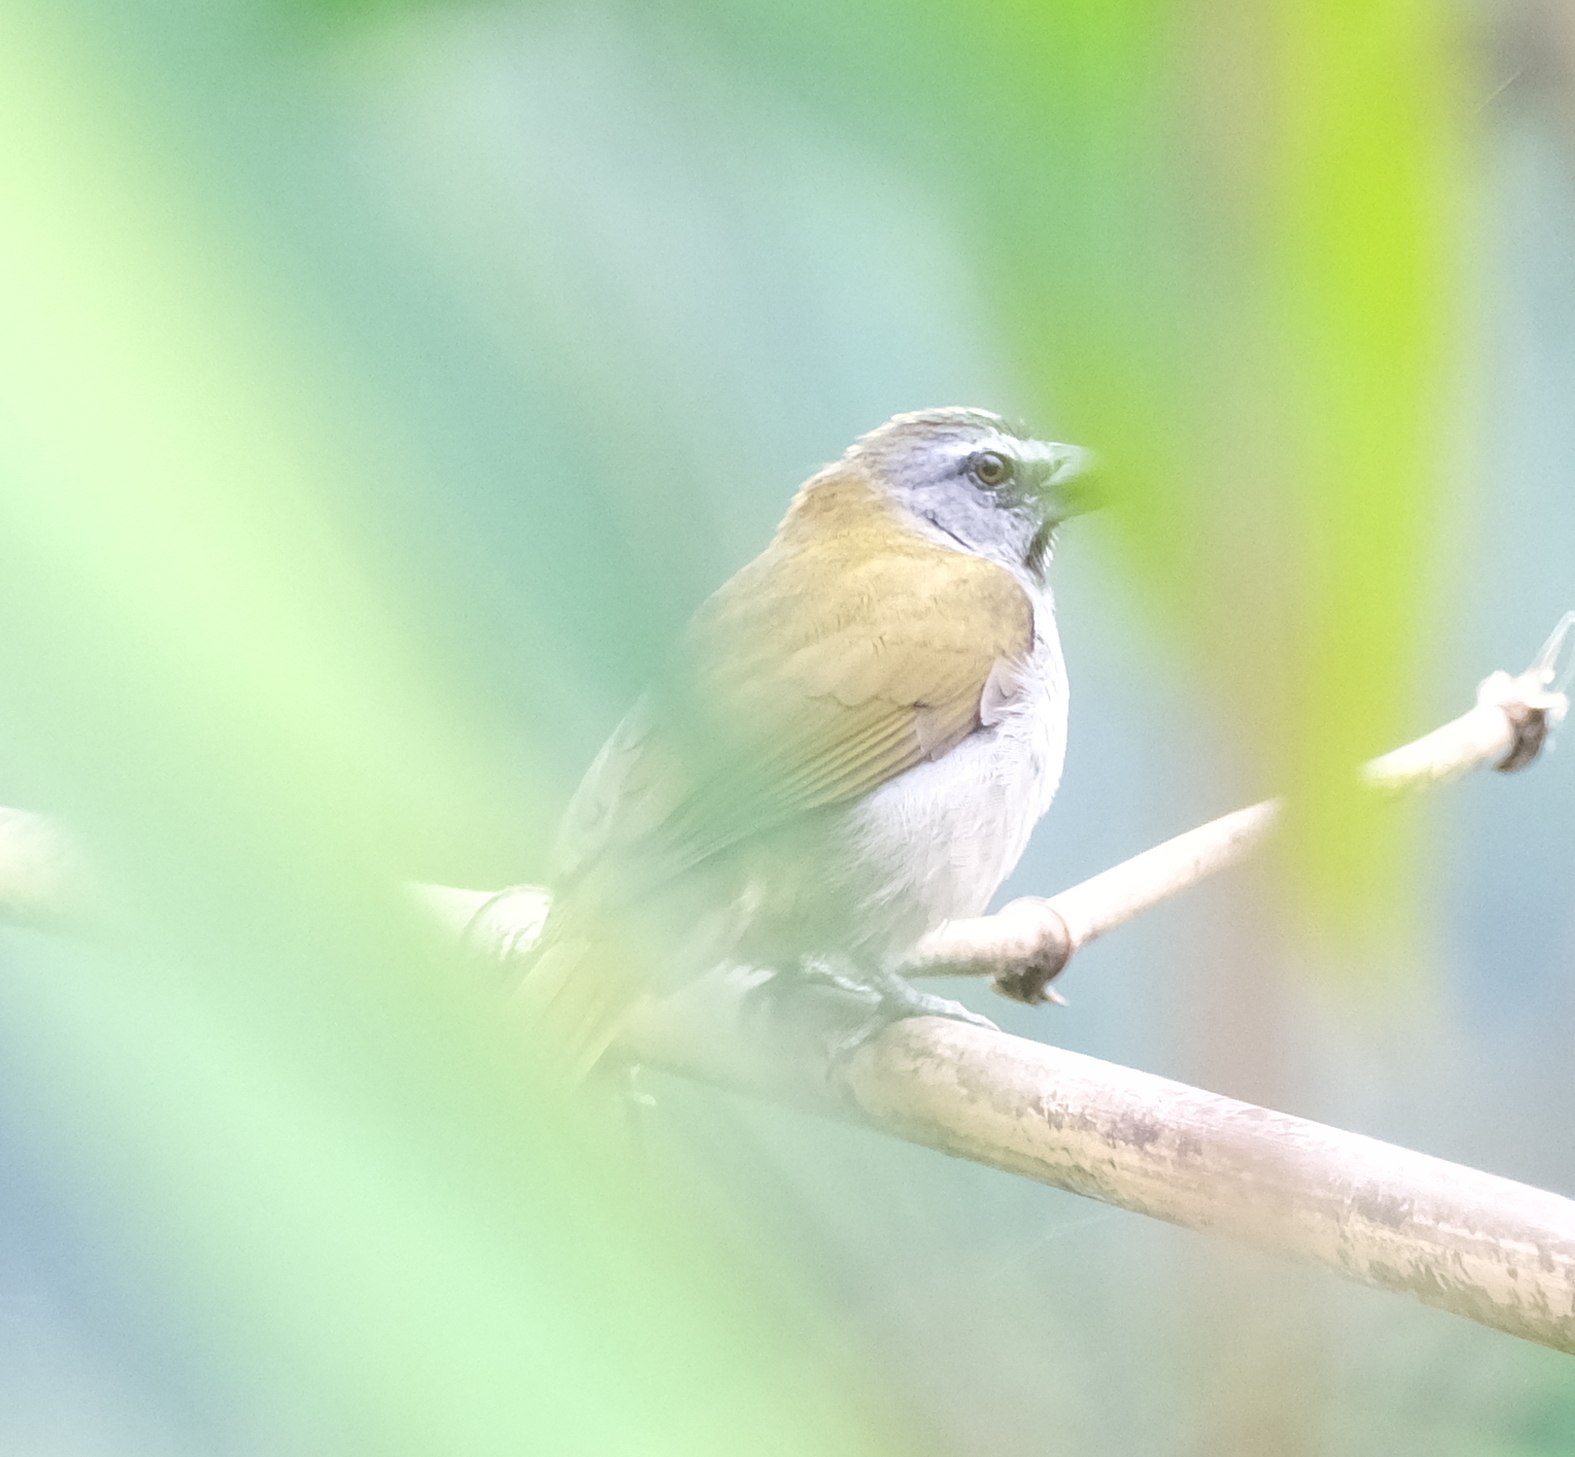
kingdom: Animalia
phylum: Chordata
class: Aves
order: Passeriformes
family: Thraupidae
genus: Saltator
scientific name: Saltator maximus
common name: Buff-throated saltator
